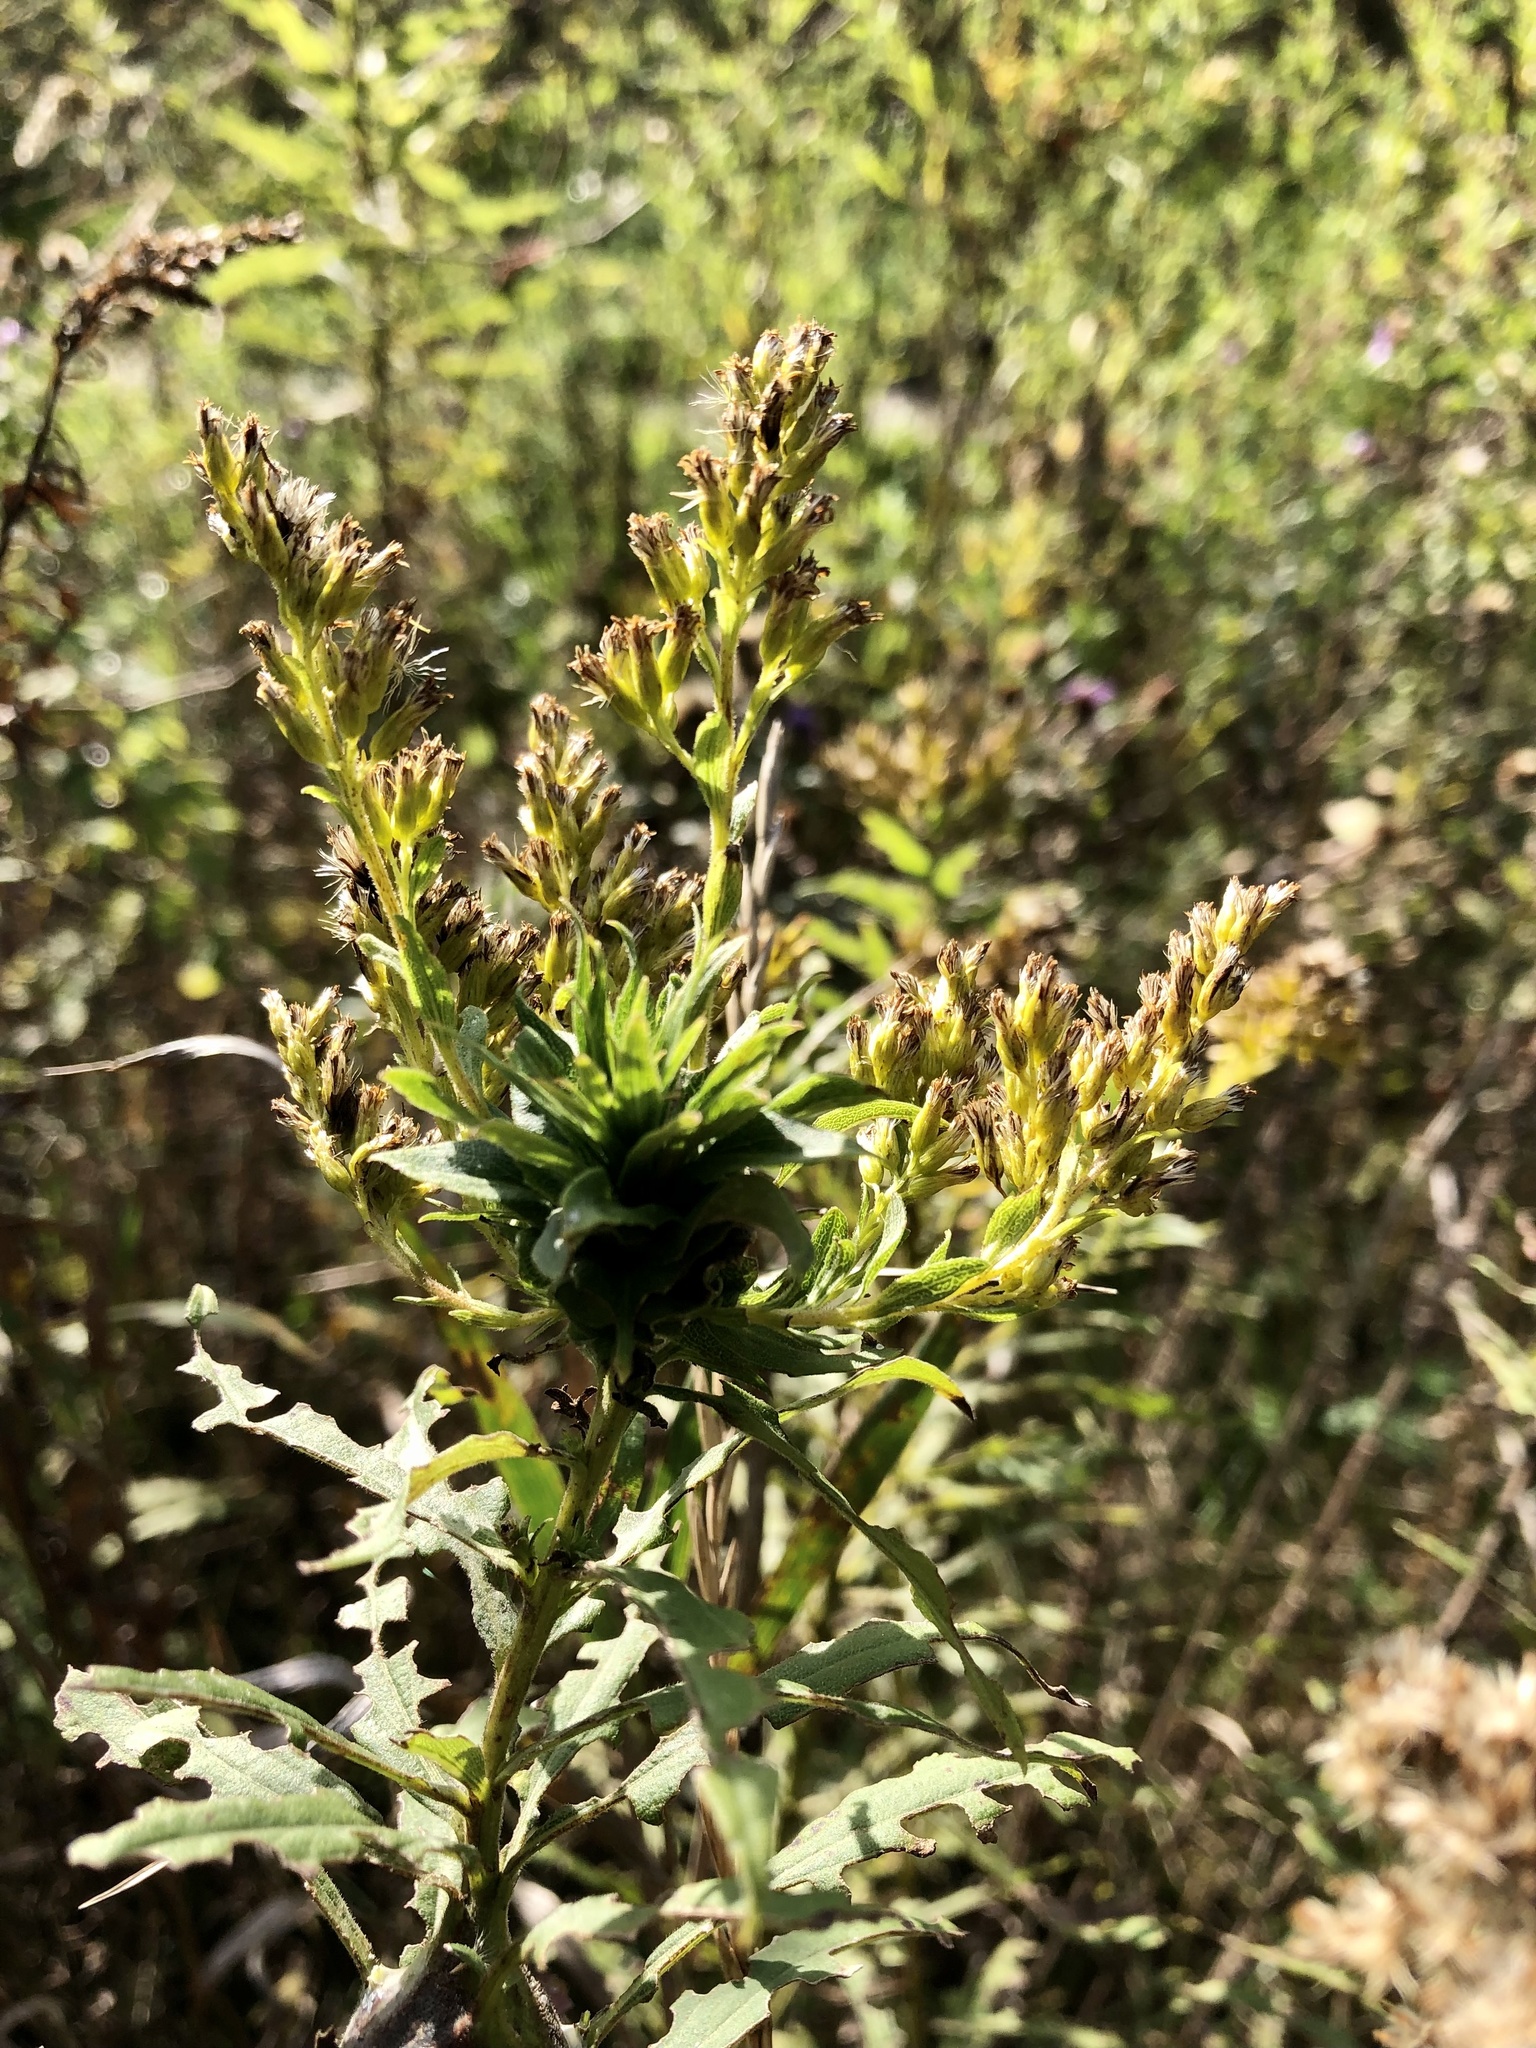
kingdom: Animalia
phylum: Arthropoda
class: Insecta
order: Diptera
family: Cecidomyiidae
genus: Rhopalomyia
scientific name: Rhopalomyia solidaginis
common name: Goldenrod bunch gall midge
